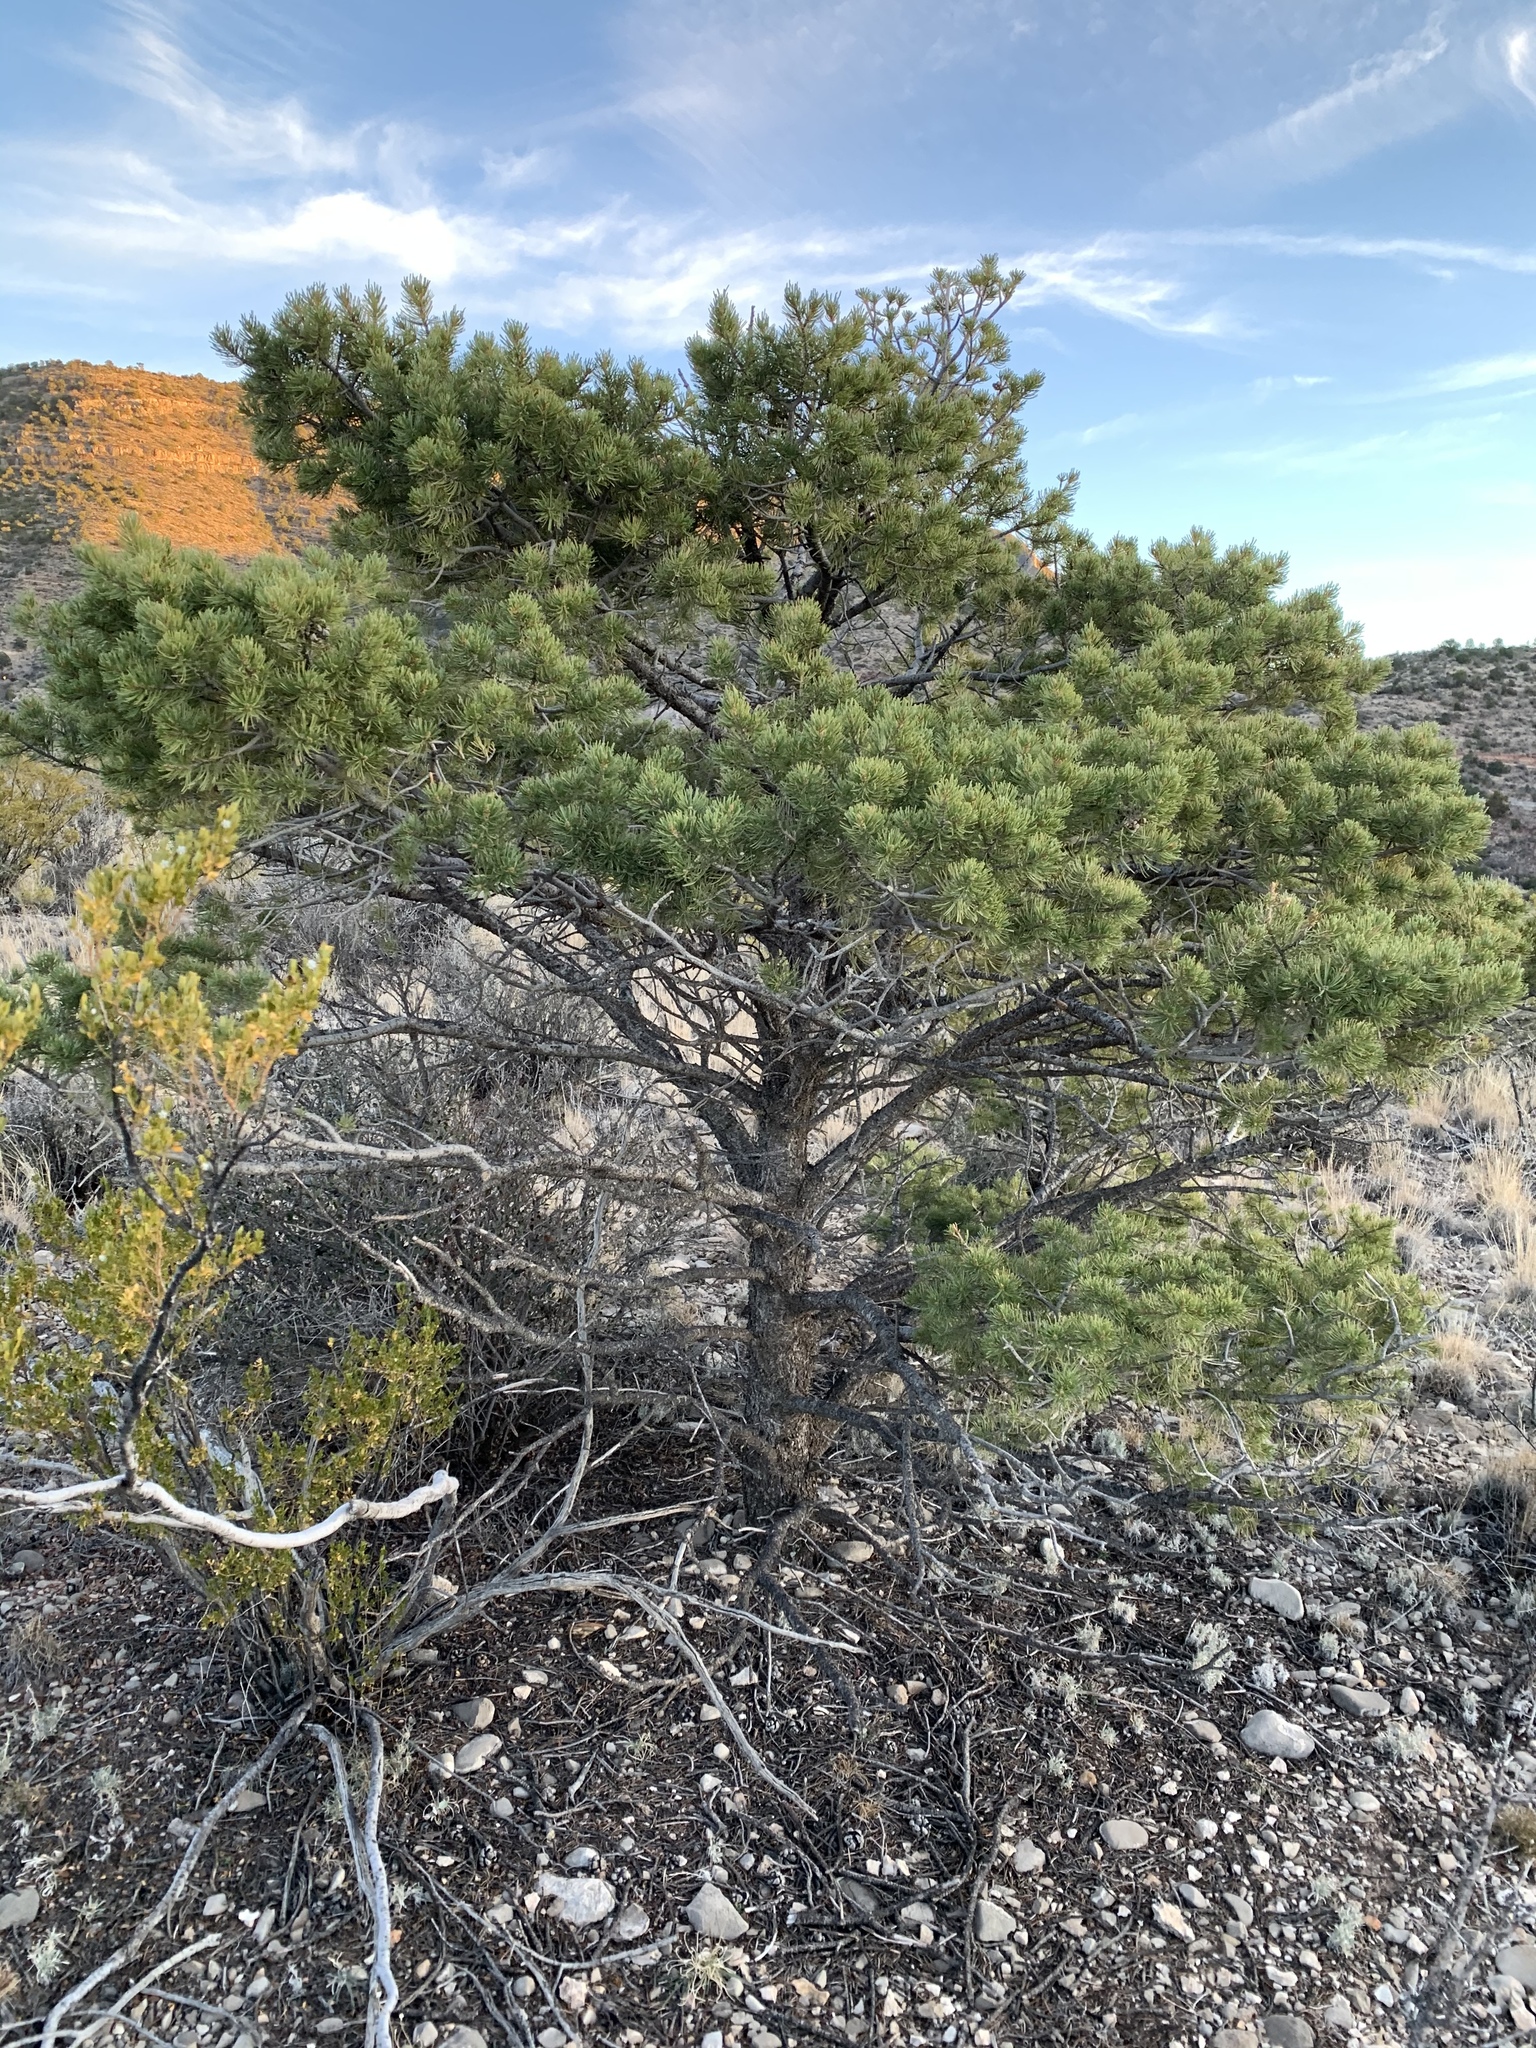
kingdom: Plantae
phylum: Tracheophyta
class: Pinopsida
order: Pinales
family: Pinaceae
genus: Pinus
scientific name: Pinus edulis
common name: Colorado pinyon
